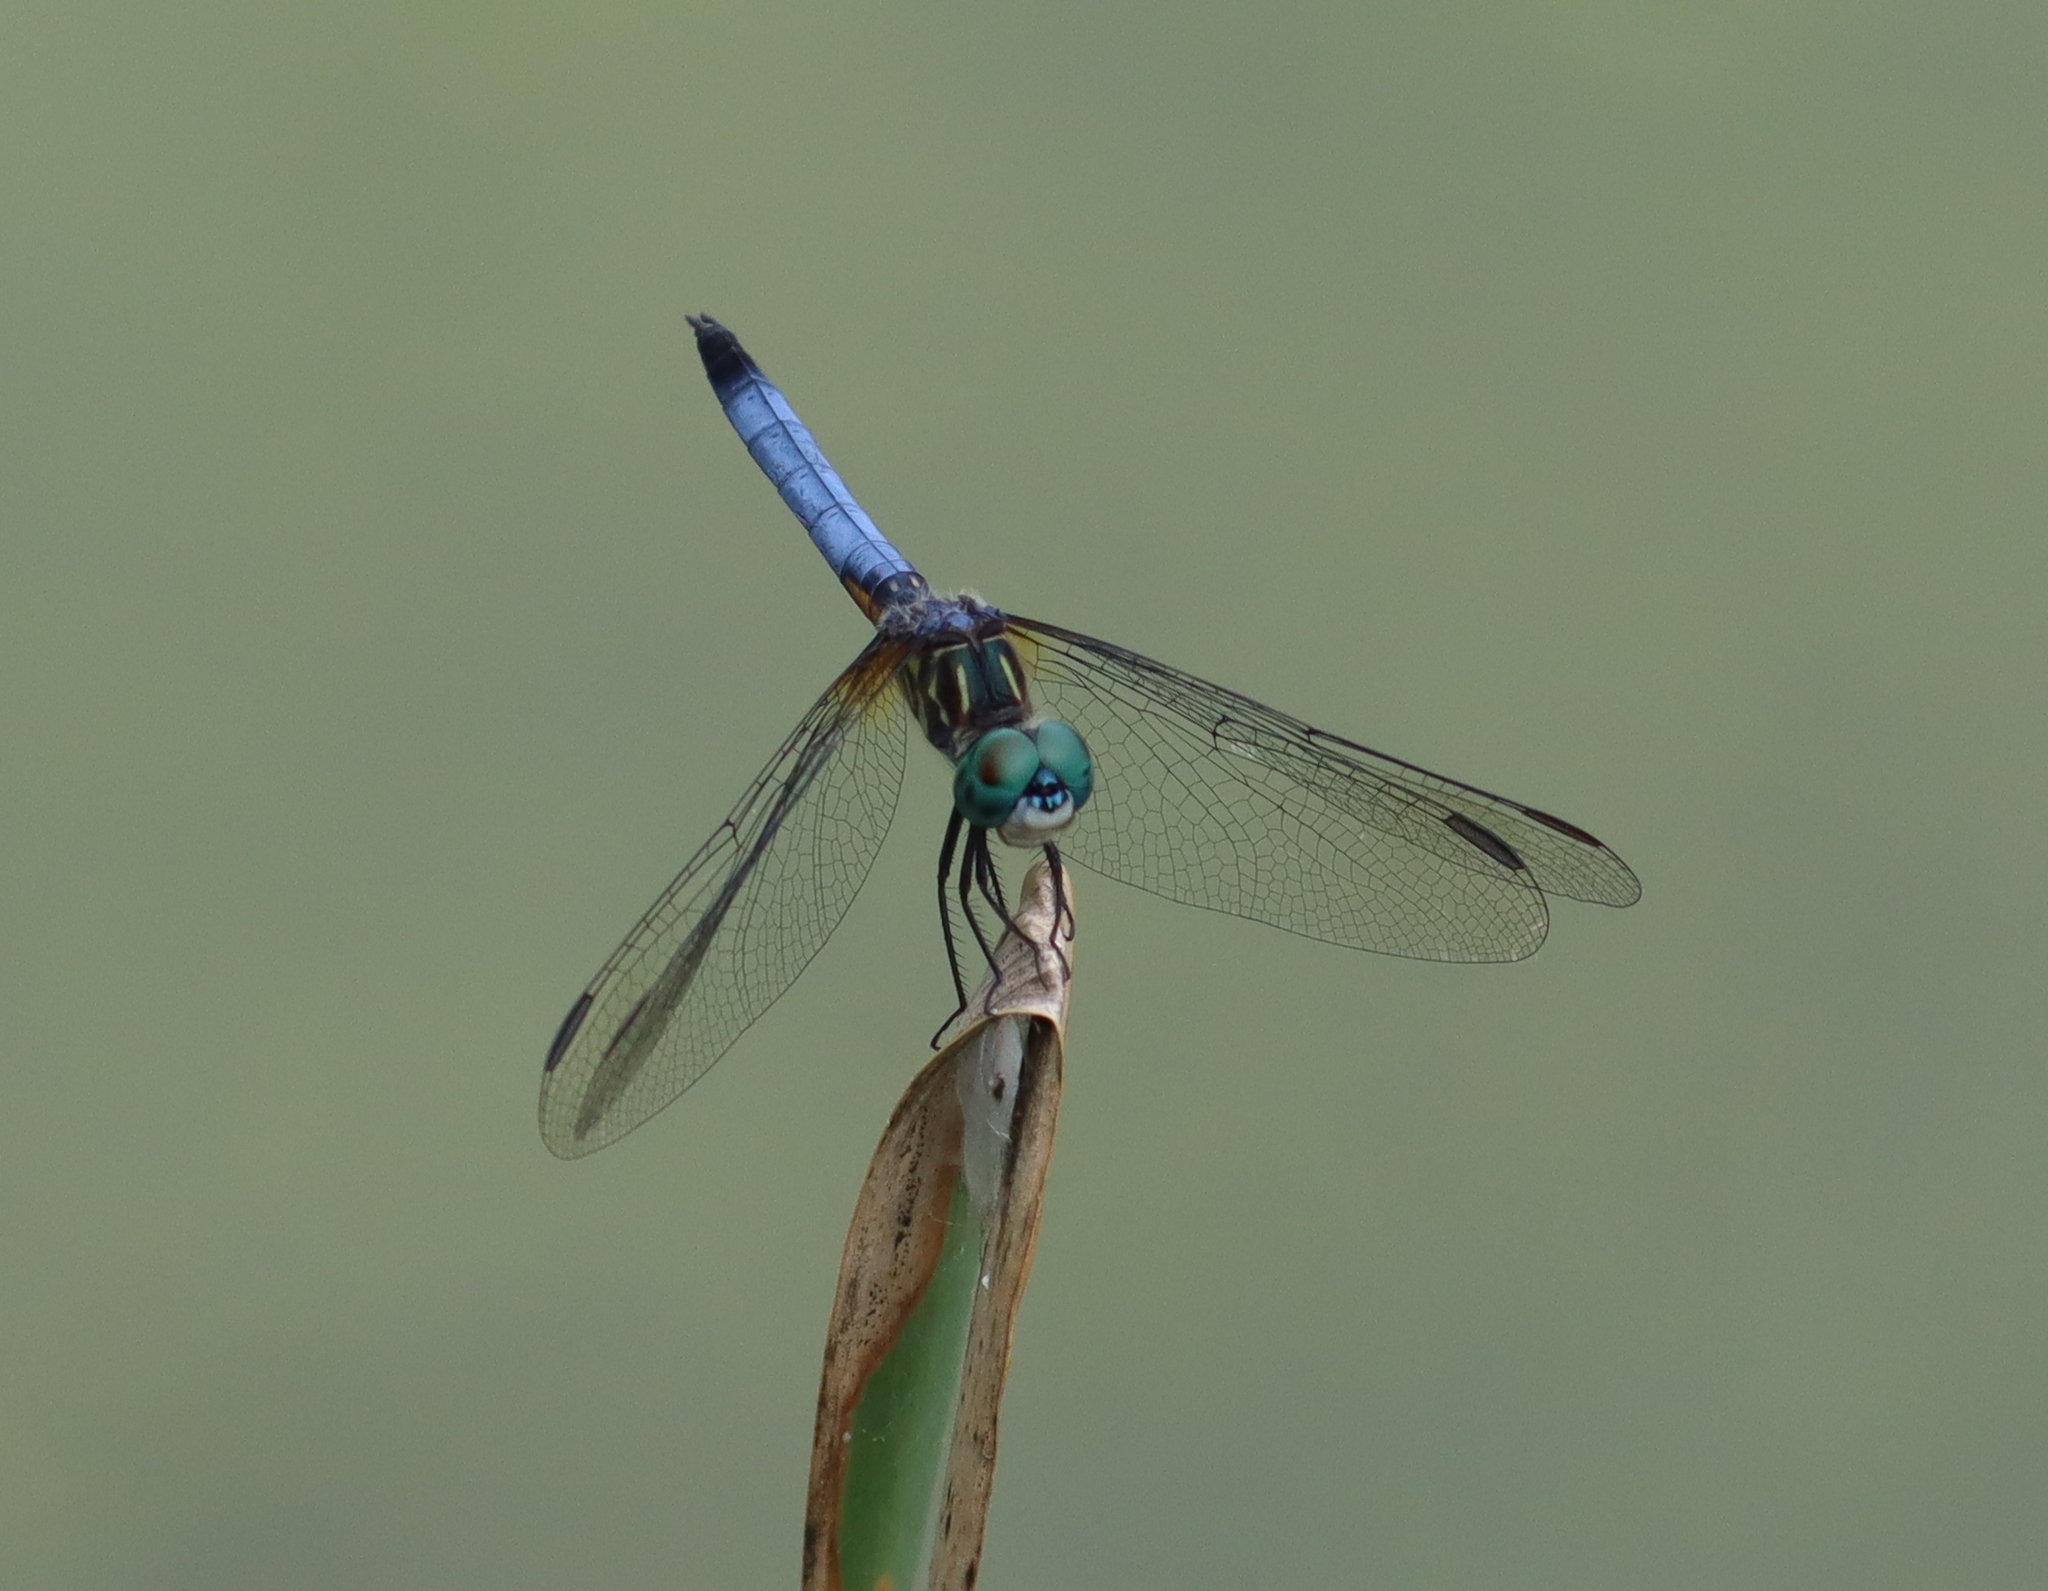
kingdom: Animalia
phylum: Arthropoda
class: Insecta
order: Odonata
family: Libellulidae
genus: Pachydiplax
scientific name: Pachydiplax longipennis
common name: Blue dasher
